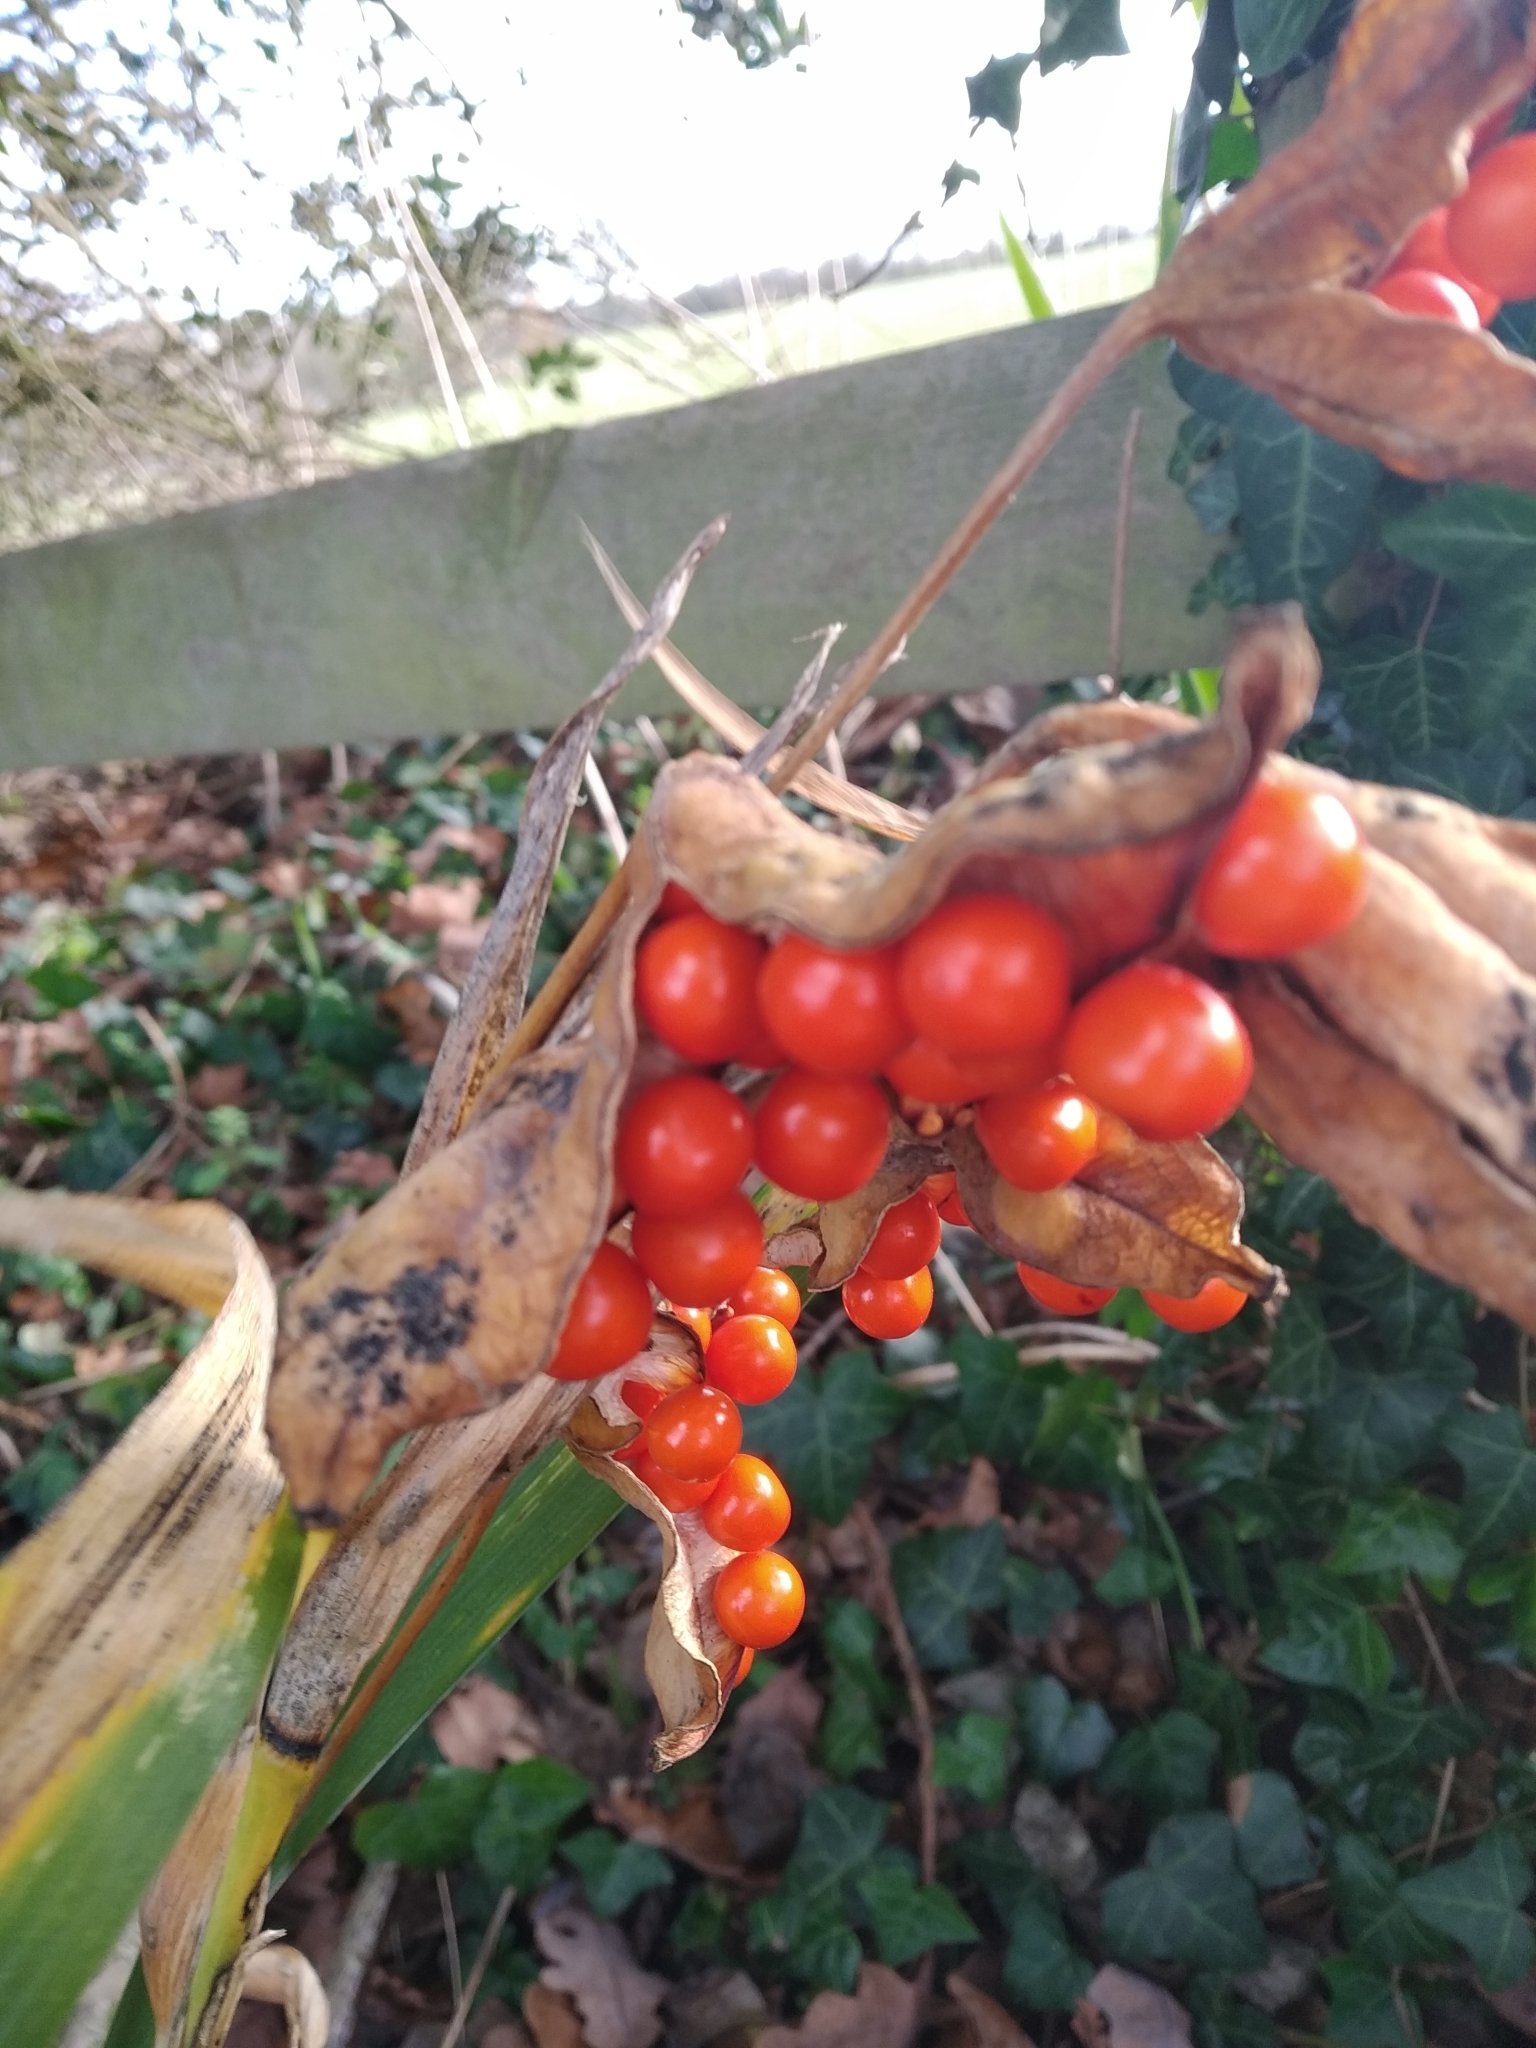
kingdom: Plantae
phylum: Tracheophyta
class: Liliopsida
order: Asparagales
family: Iridaceae
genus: Iris
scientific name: Iris foetidissima
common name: Stinking iris
